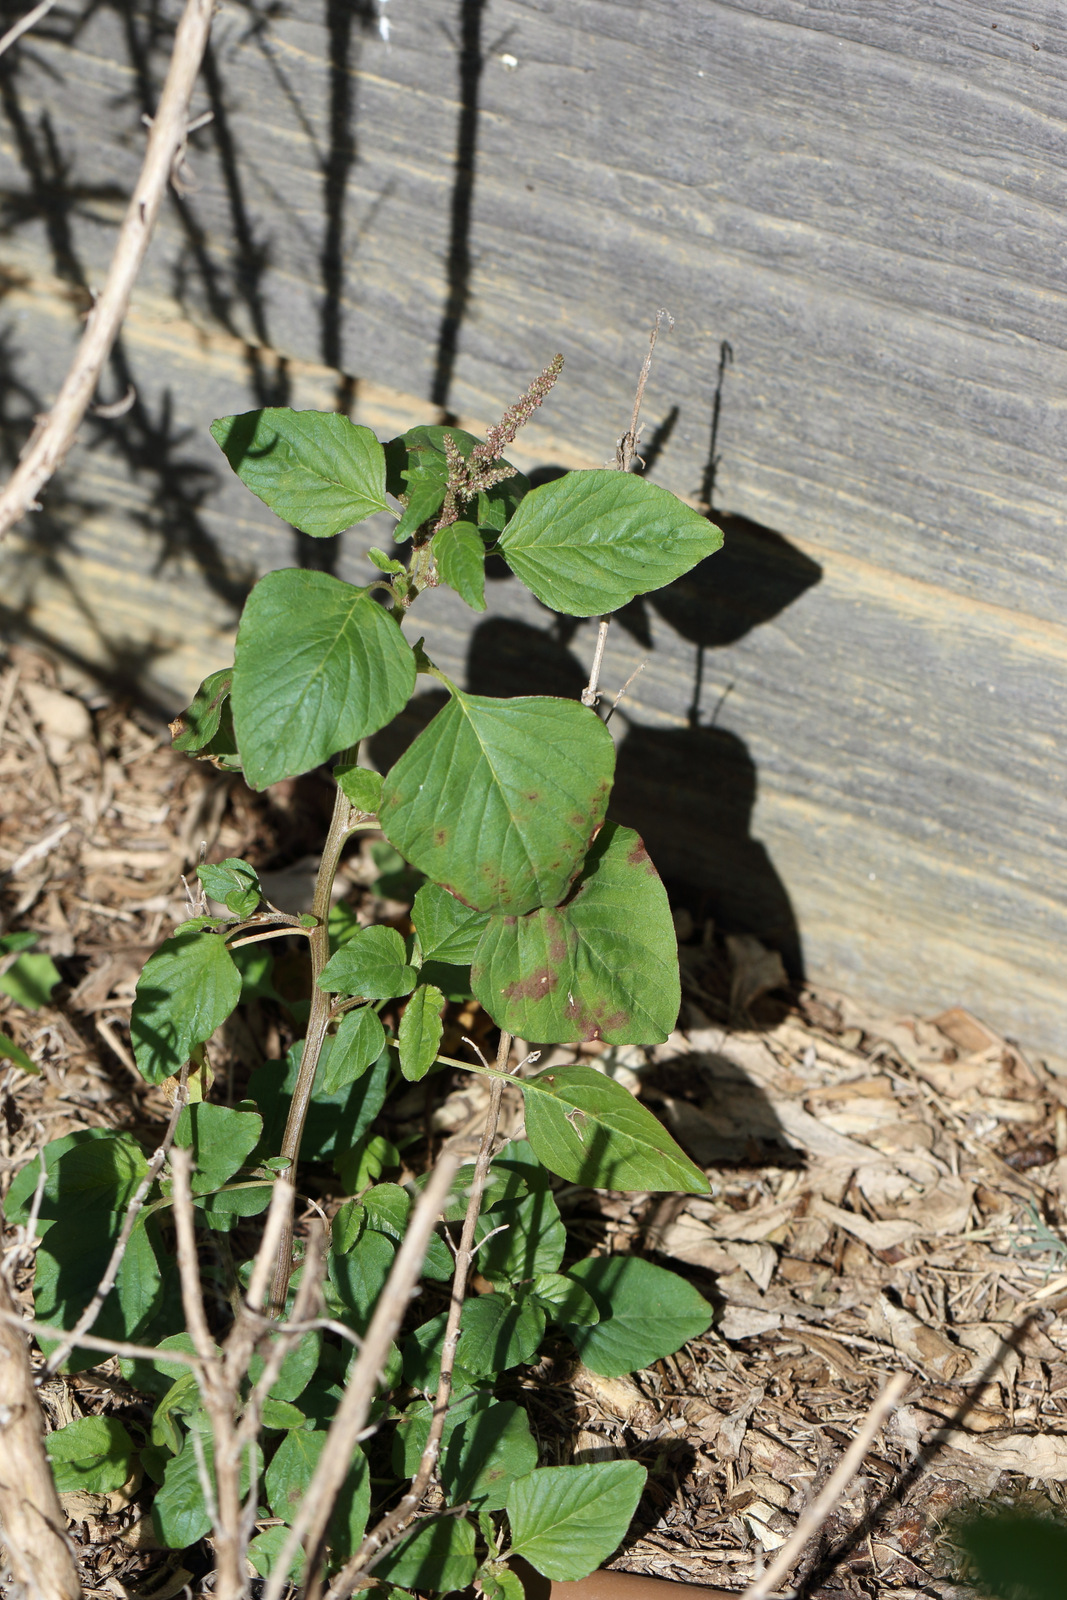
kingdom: Plantae
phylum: Tracheophyta
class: Magnoliopsida
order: Caryophyllales
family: Amaranthaceae
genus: Amaranthus
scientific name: Amaranthus viridis
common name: Slender amaranth
